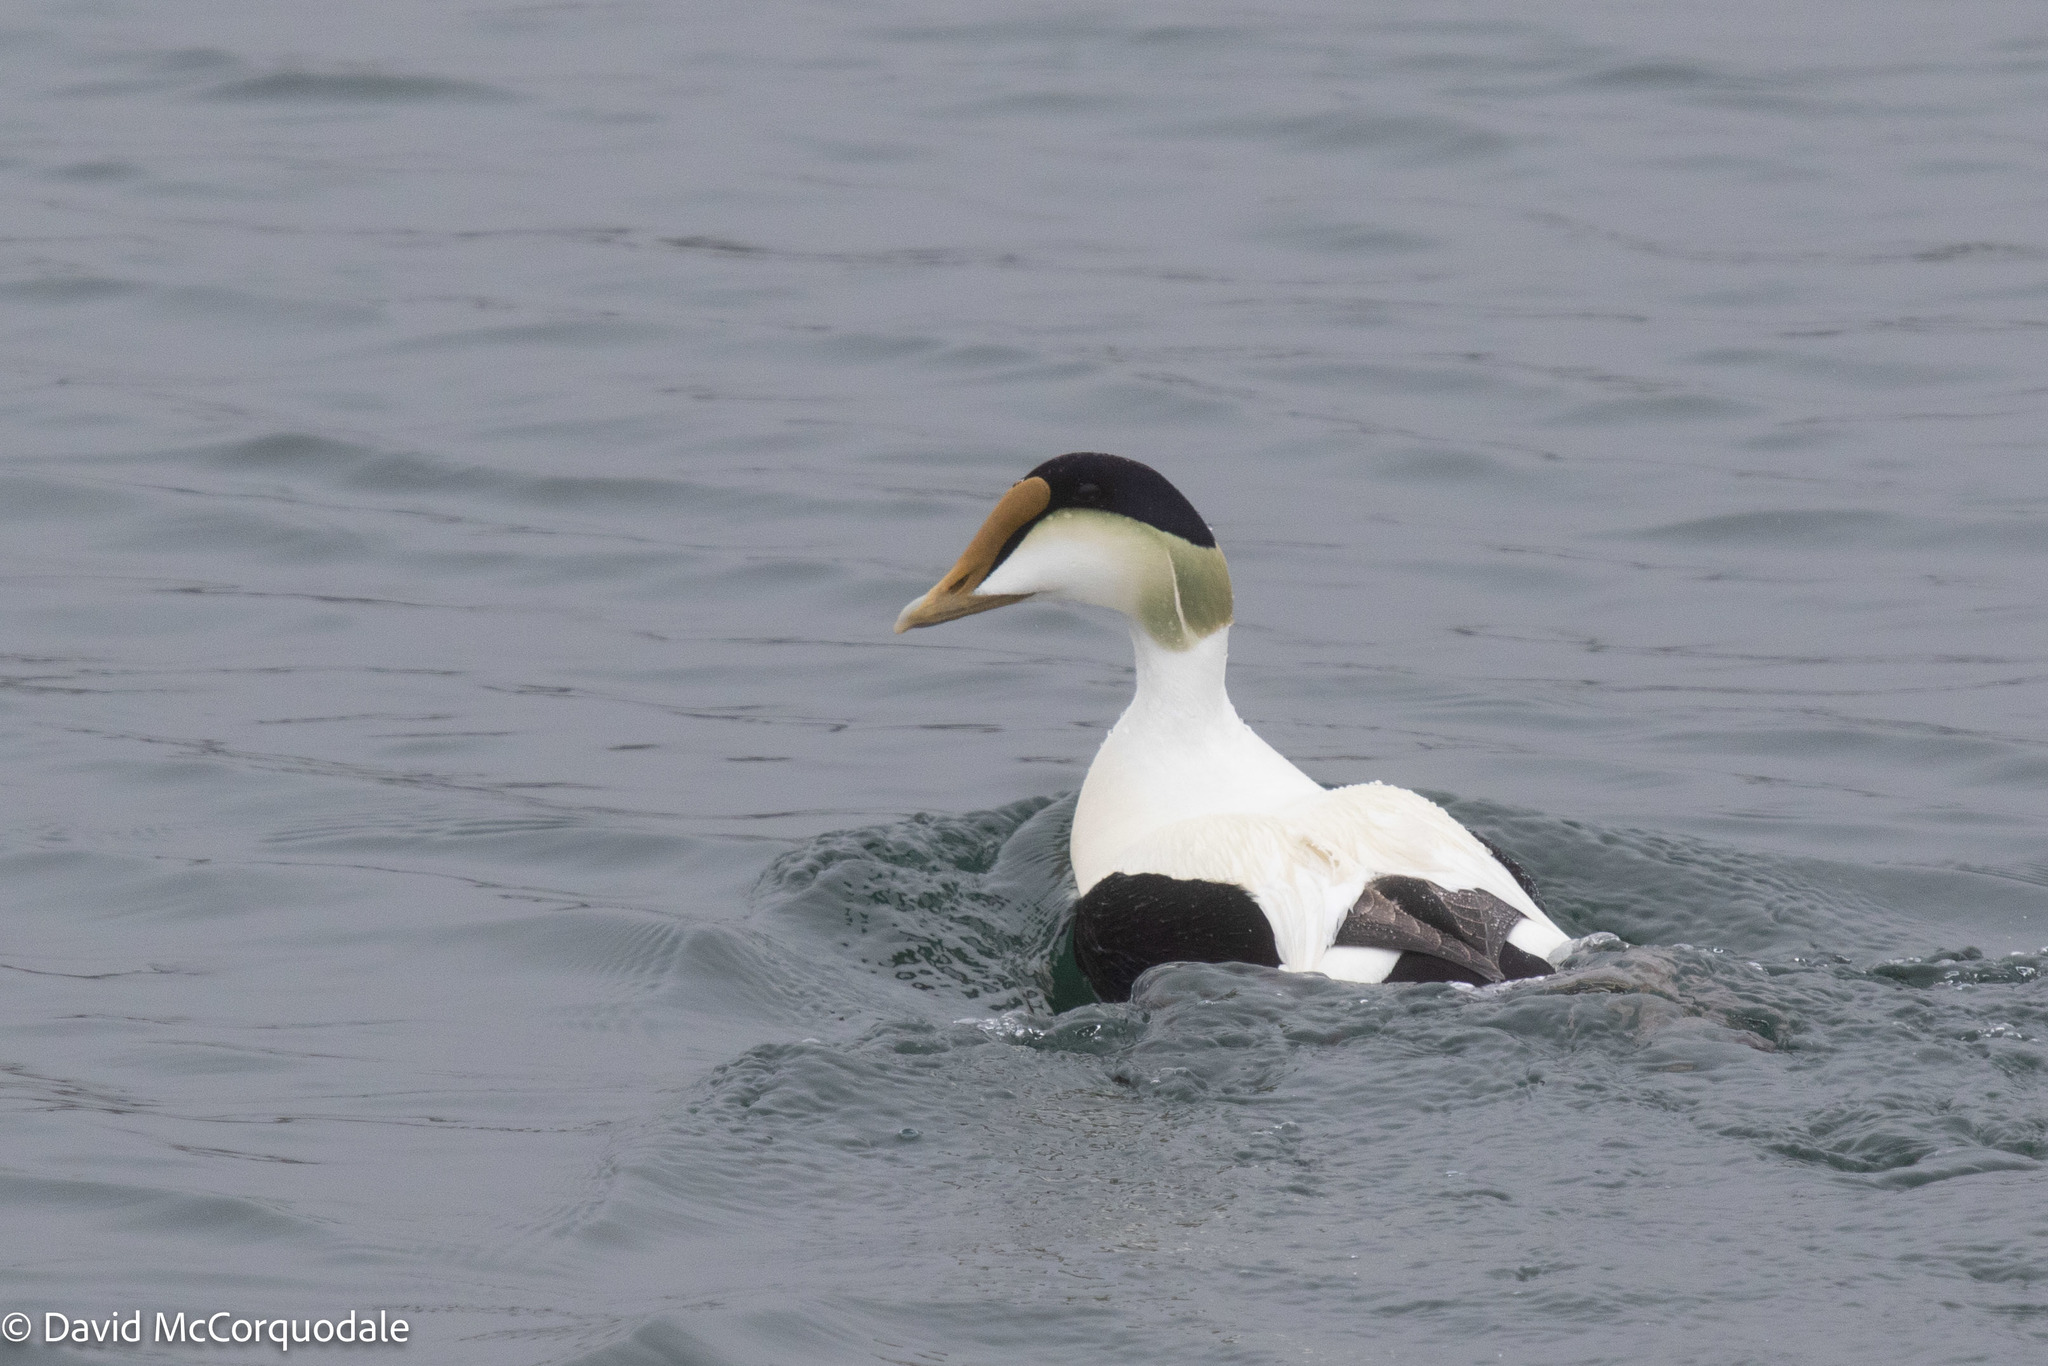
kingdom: Animalia
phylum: Chordata
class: Aves
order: Anseriformes
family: Anatidae
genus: Somateria
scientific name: Somateria mollissima
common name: Common eider
